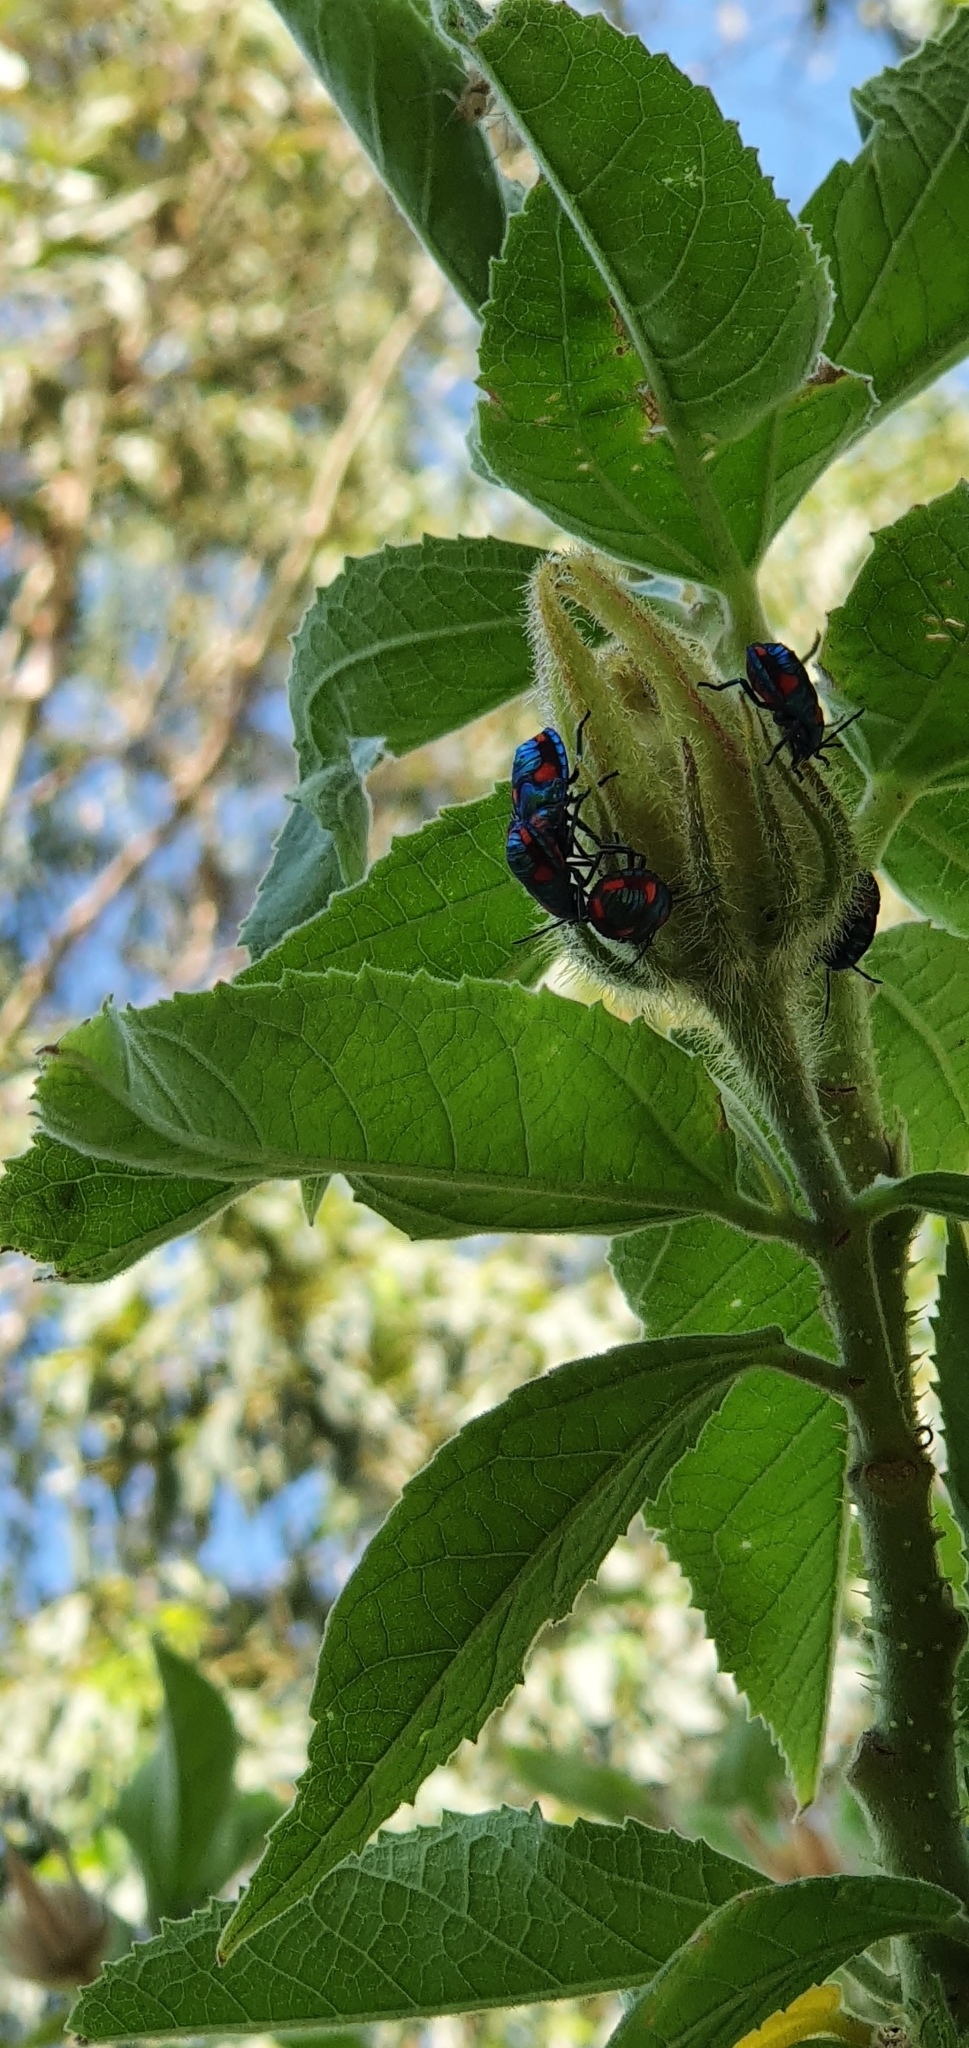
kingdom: Animalia
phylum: Arthropoda
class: Insecta
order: Hemiptera
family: Scutelleridae
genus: Tectocoris
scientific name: Tectocoris diophthalmus
